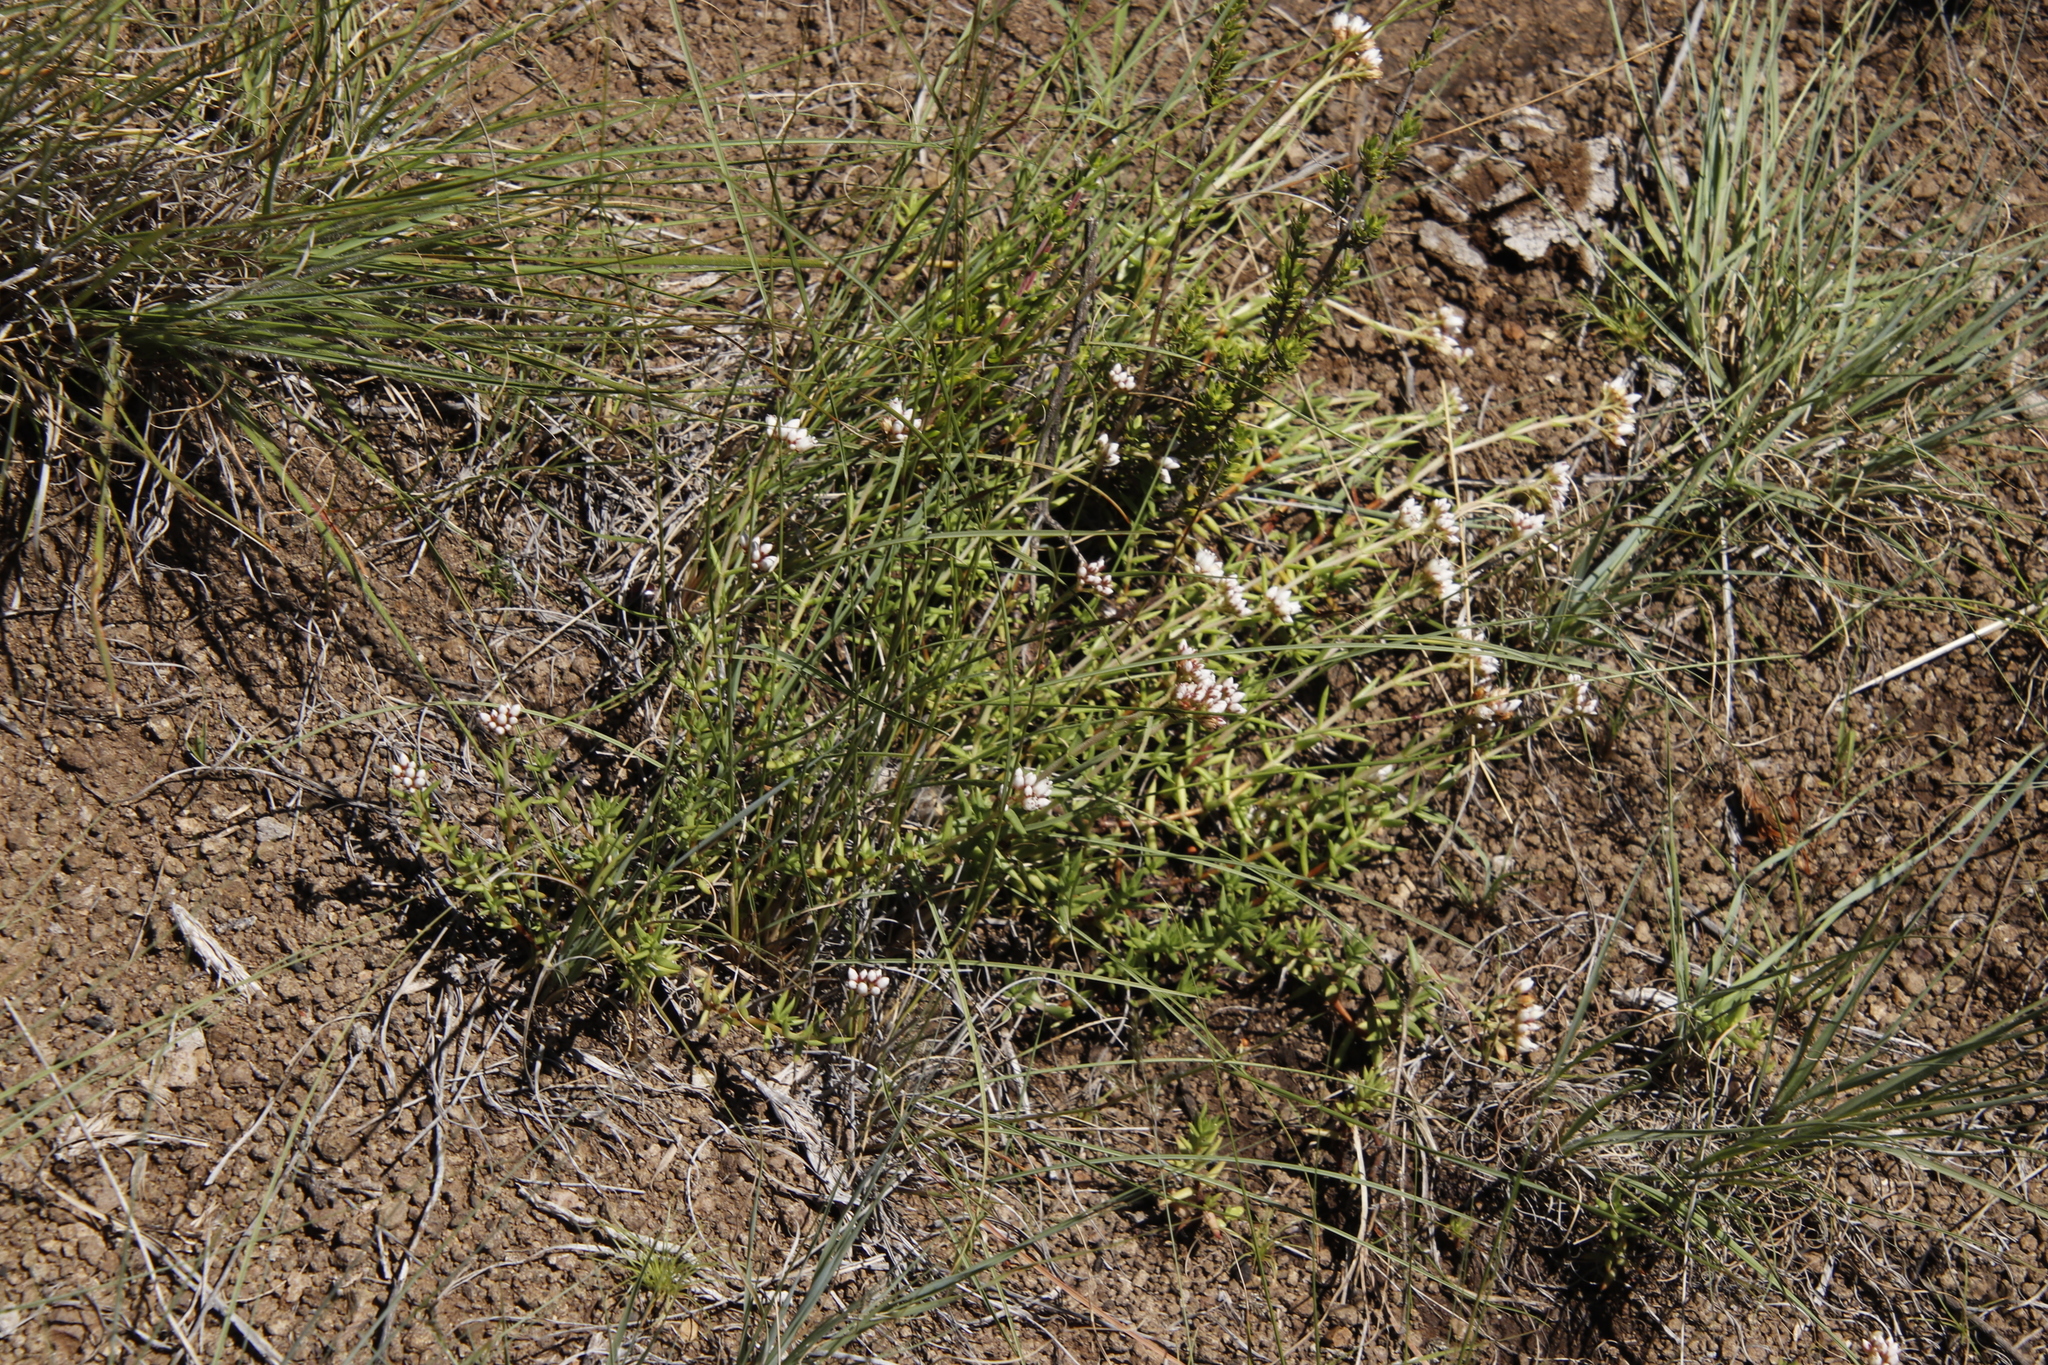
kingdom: Plantae
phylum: Tracheophyta
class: Magnoliopsida
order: Saxifragales
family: Crassulaceae
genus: Crassula
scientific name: Crassula dependens
